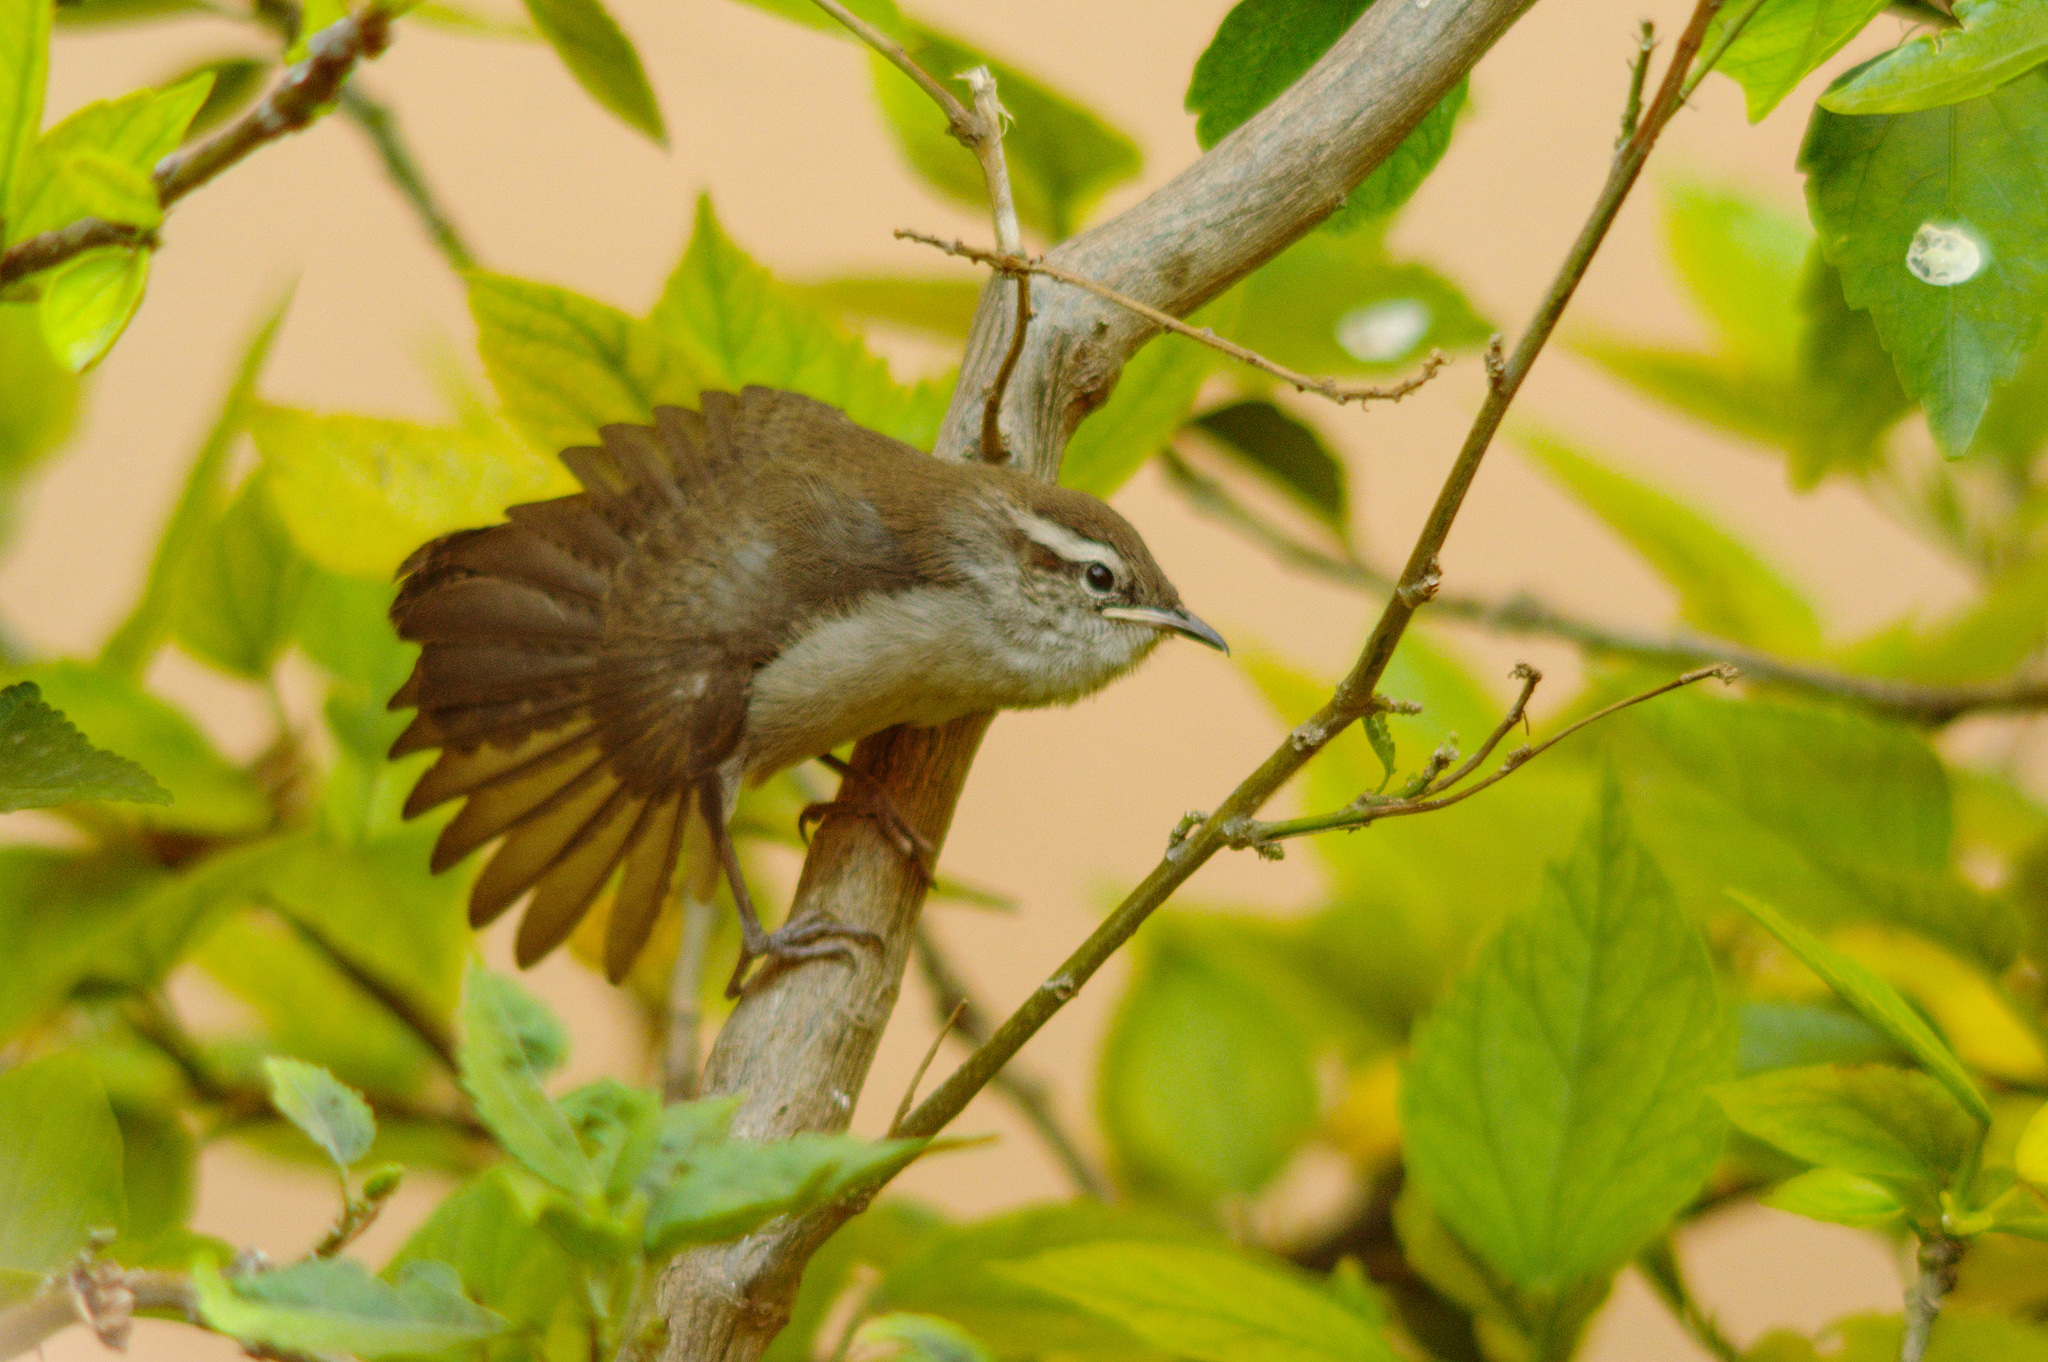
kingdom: Animalia
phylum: Chordata
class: Aves
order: Passeriformes
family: Troglodytidae
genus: Thryomanes
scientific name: Thryomanes bewickii
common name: Bewick's wren
